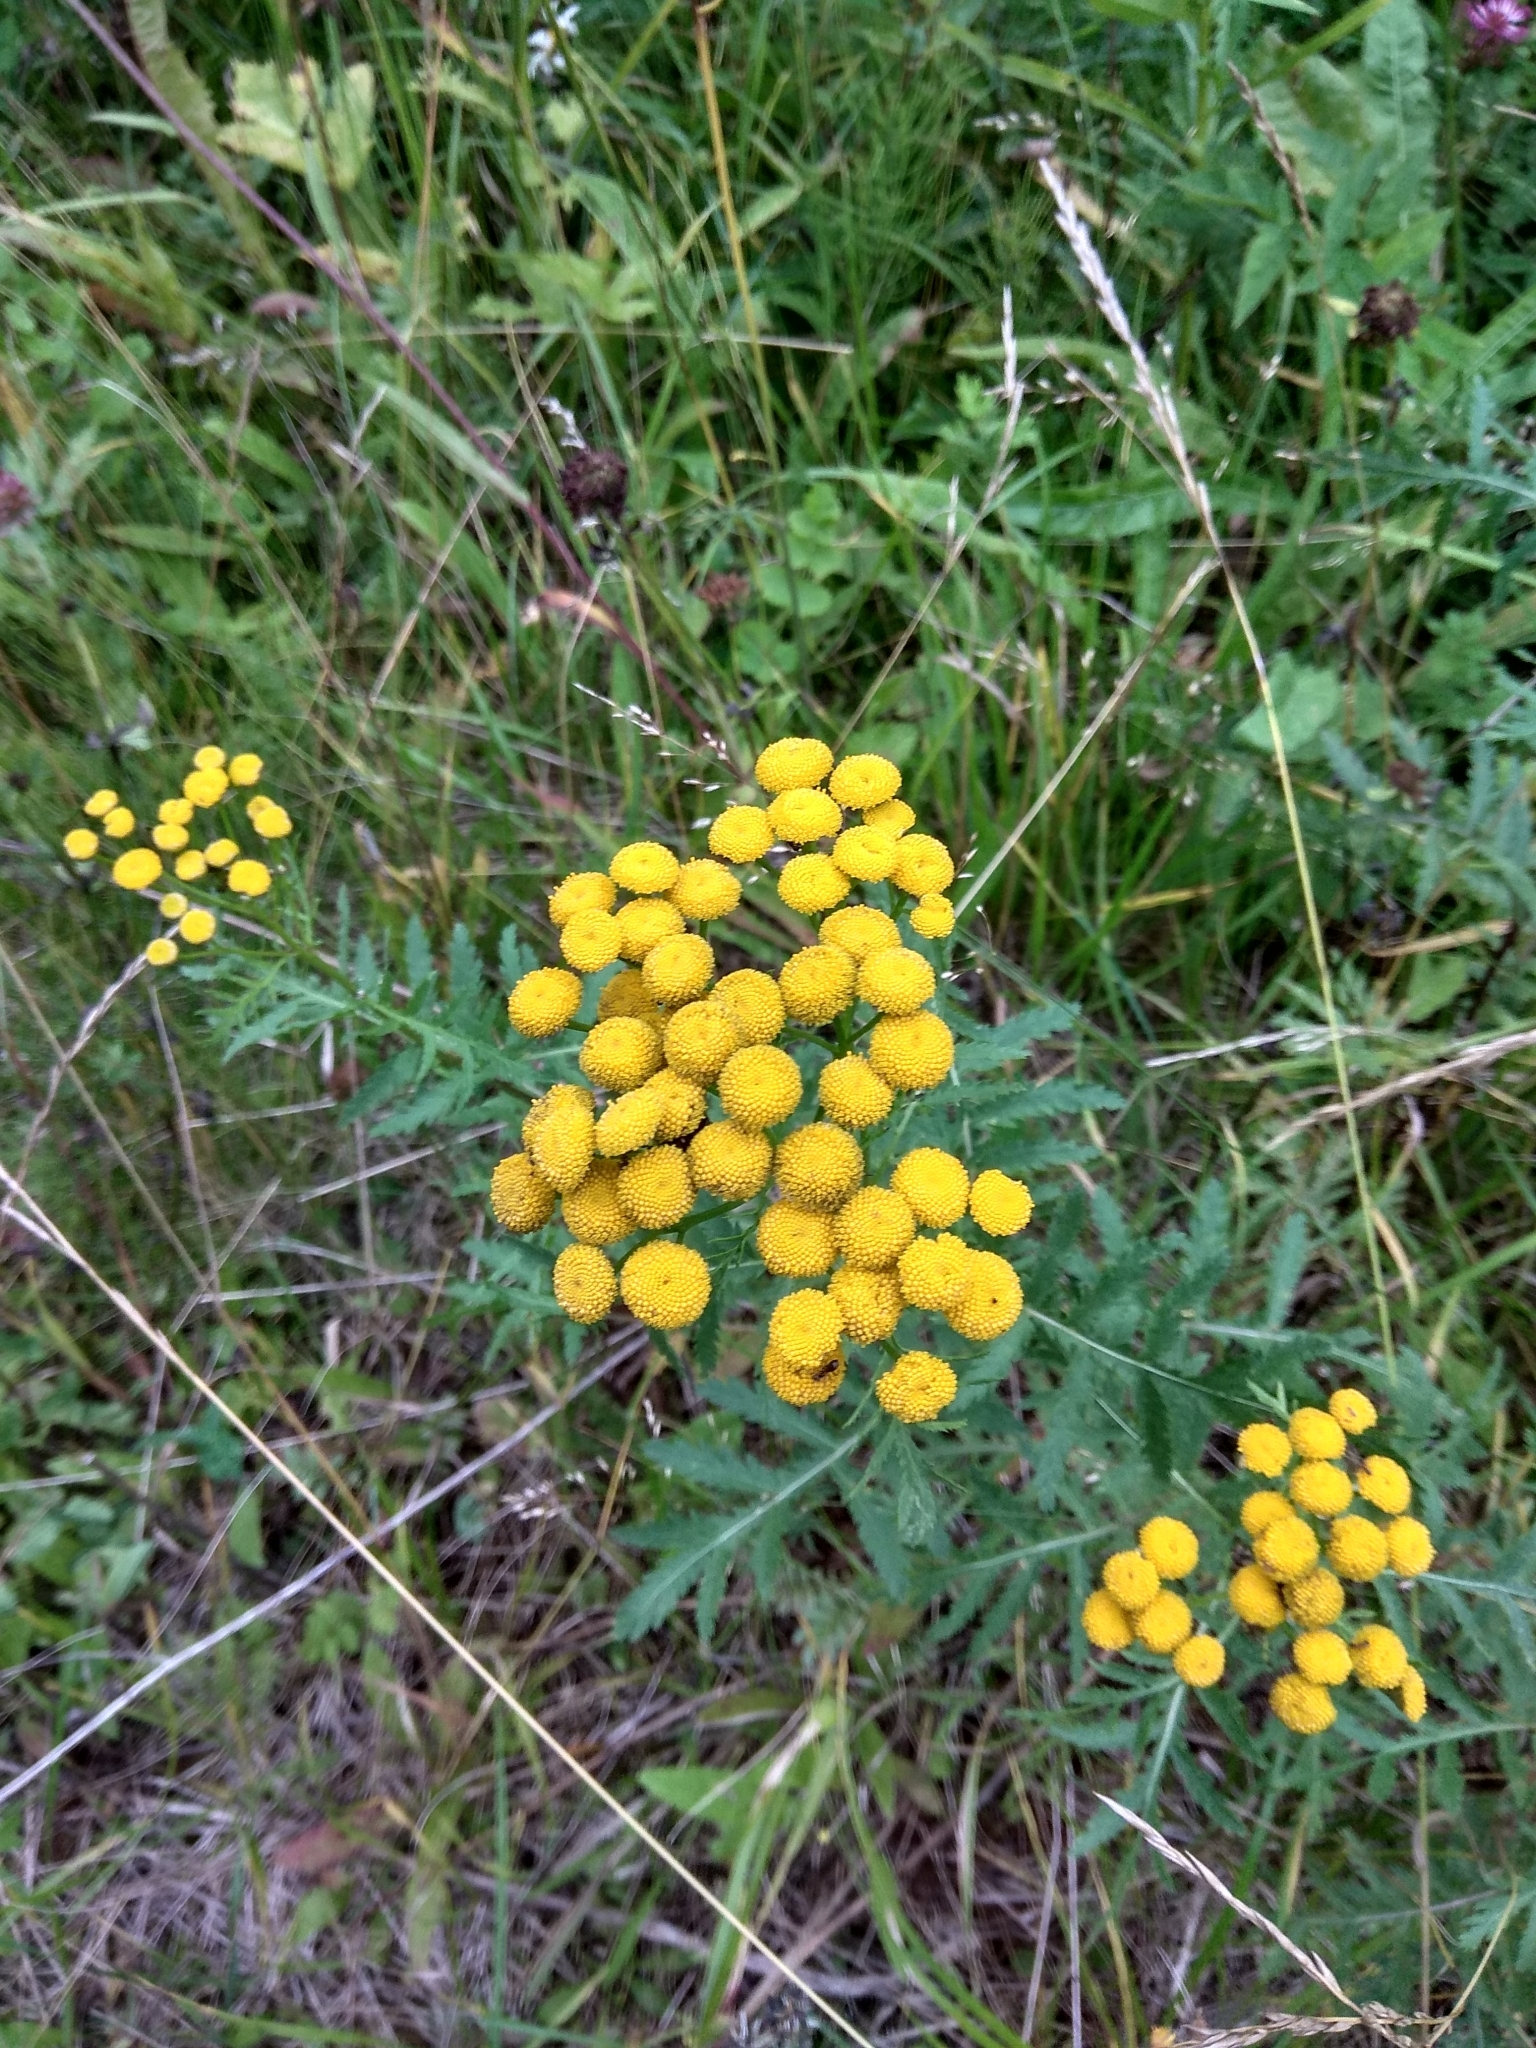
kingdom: Plantae
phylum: Tracheophyta
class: Magnoliopsida
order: Asterales
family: Asteraceae
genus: Tanacetum
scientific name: Tanacetum vulgare
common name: Common tansy
